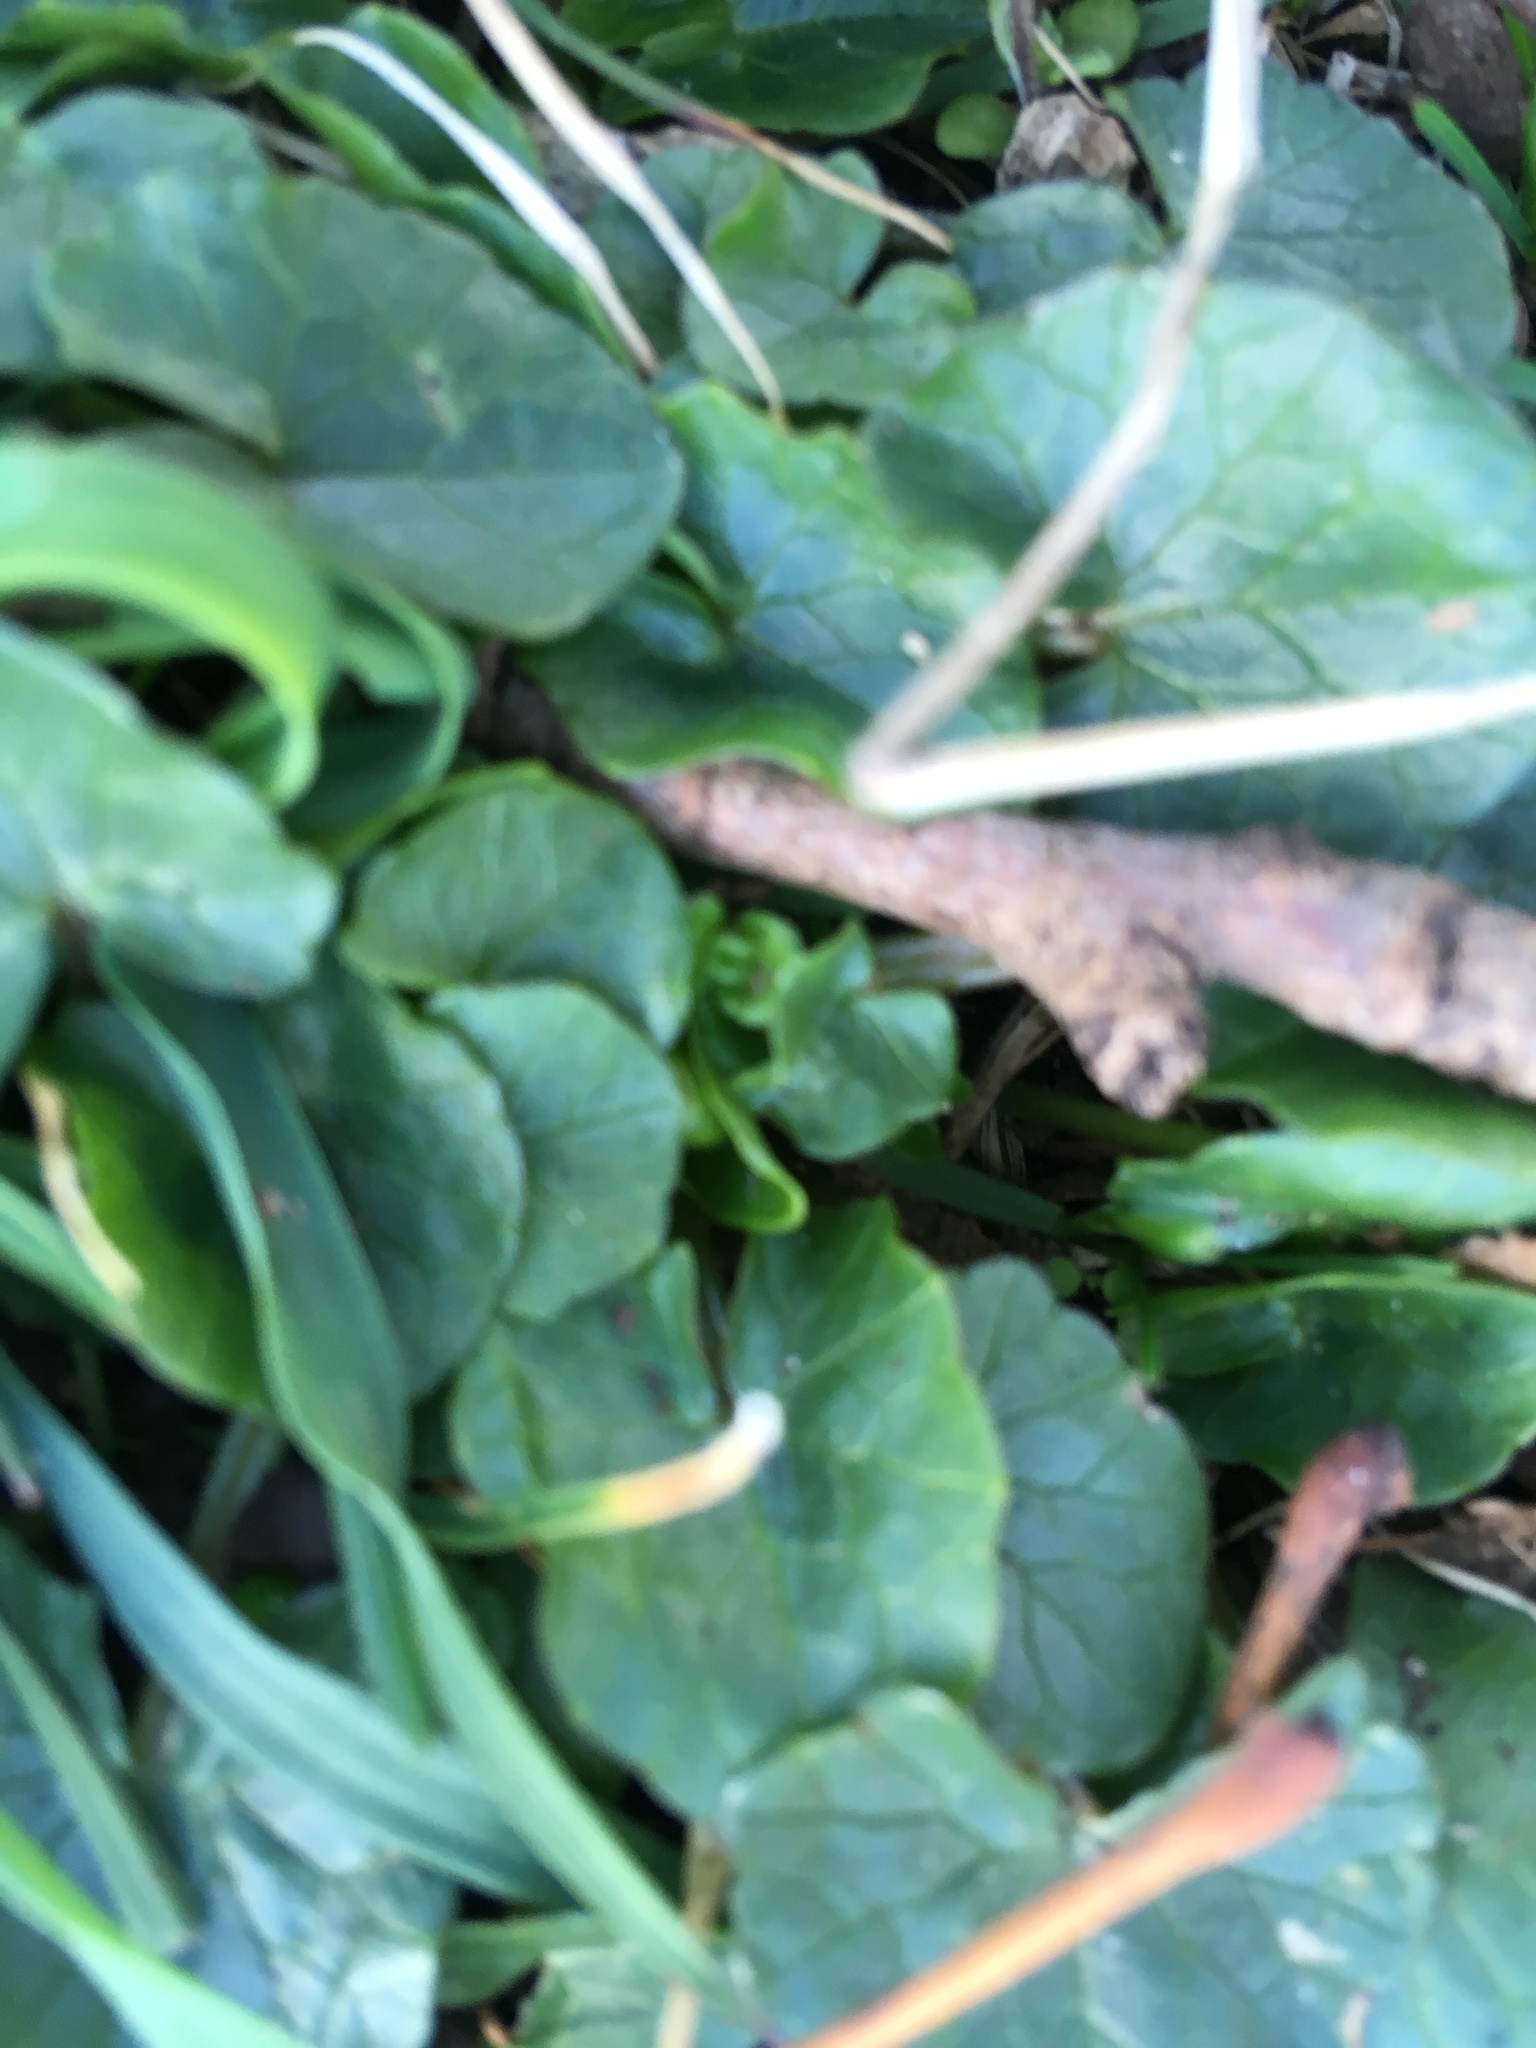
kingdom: Plantae
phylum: Tracheophyta
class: Magnoliopsida
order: Ranunculales
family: Ranunculaceae
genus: Ficaria
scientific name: Ficaria verna
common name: Lesser celandine
